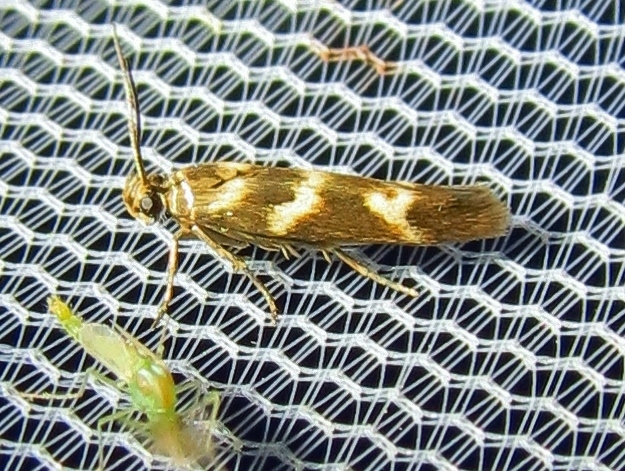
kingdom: Animalia
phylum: Arthropoda
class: Insecta
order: Lepidoptera
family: Scythrididae
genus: Scythris
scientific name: Scythris trivinctella
